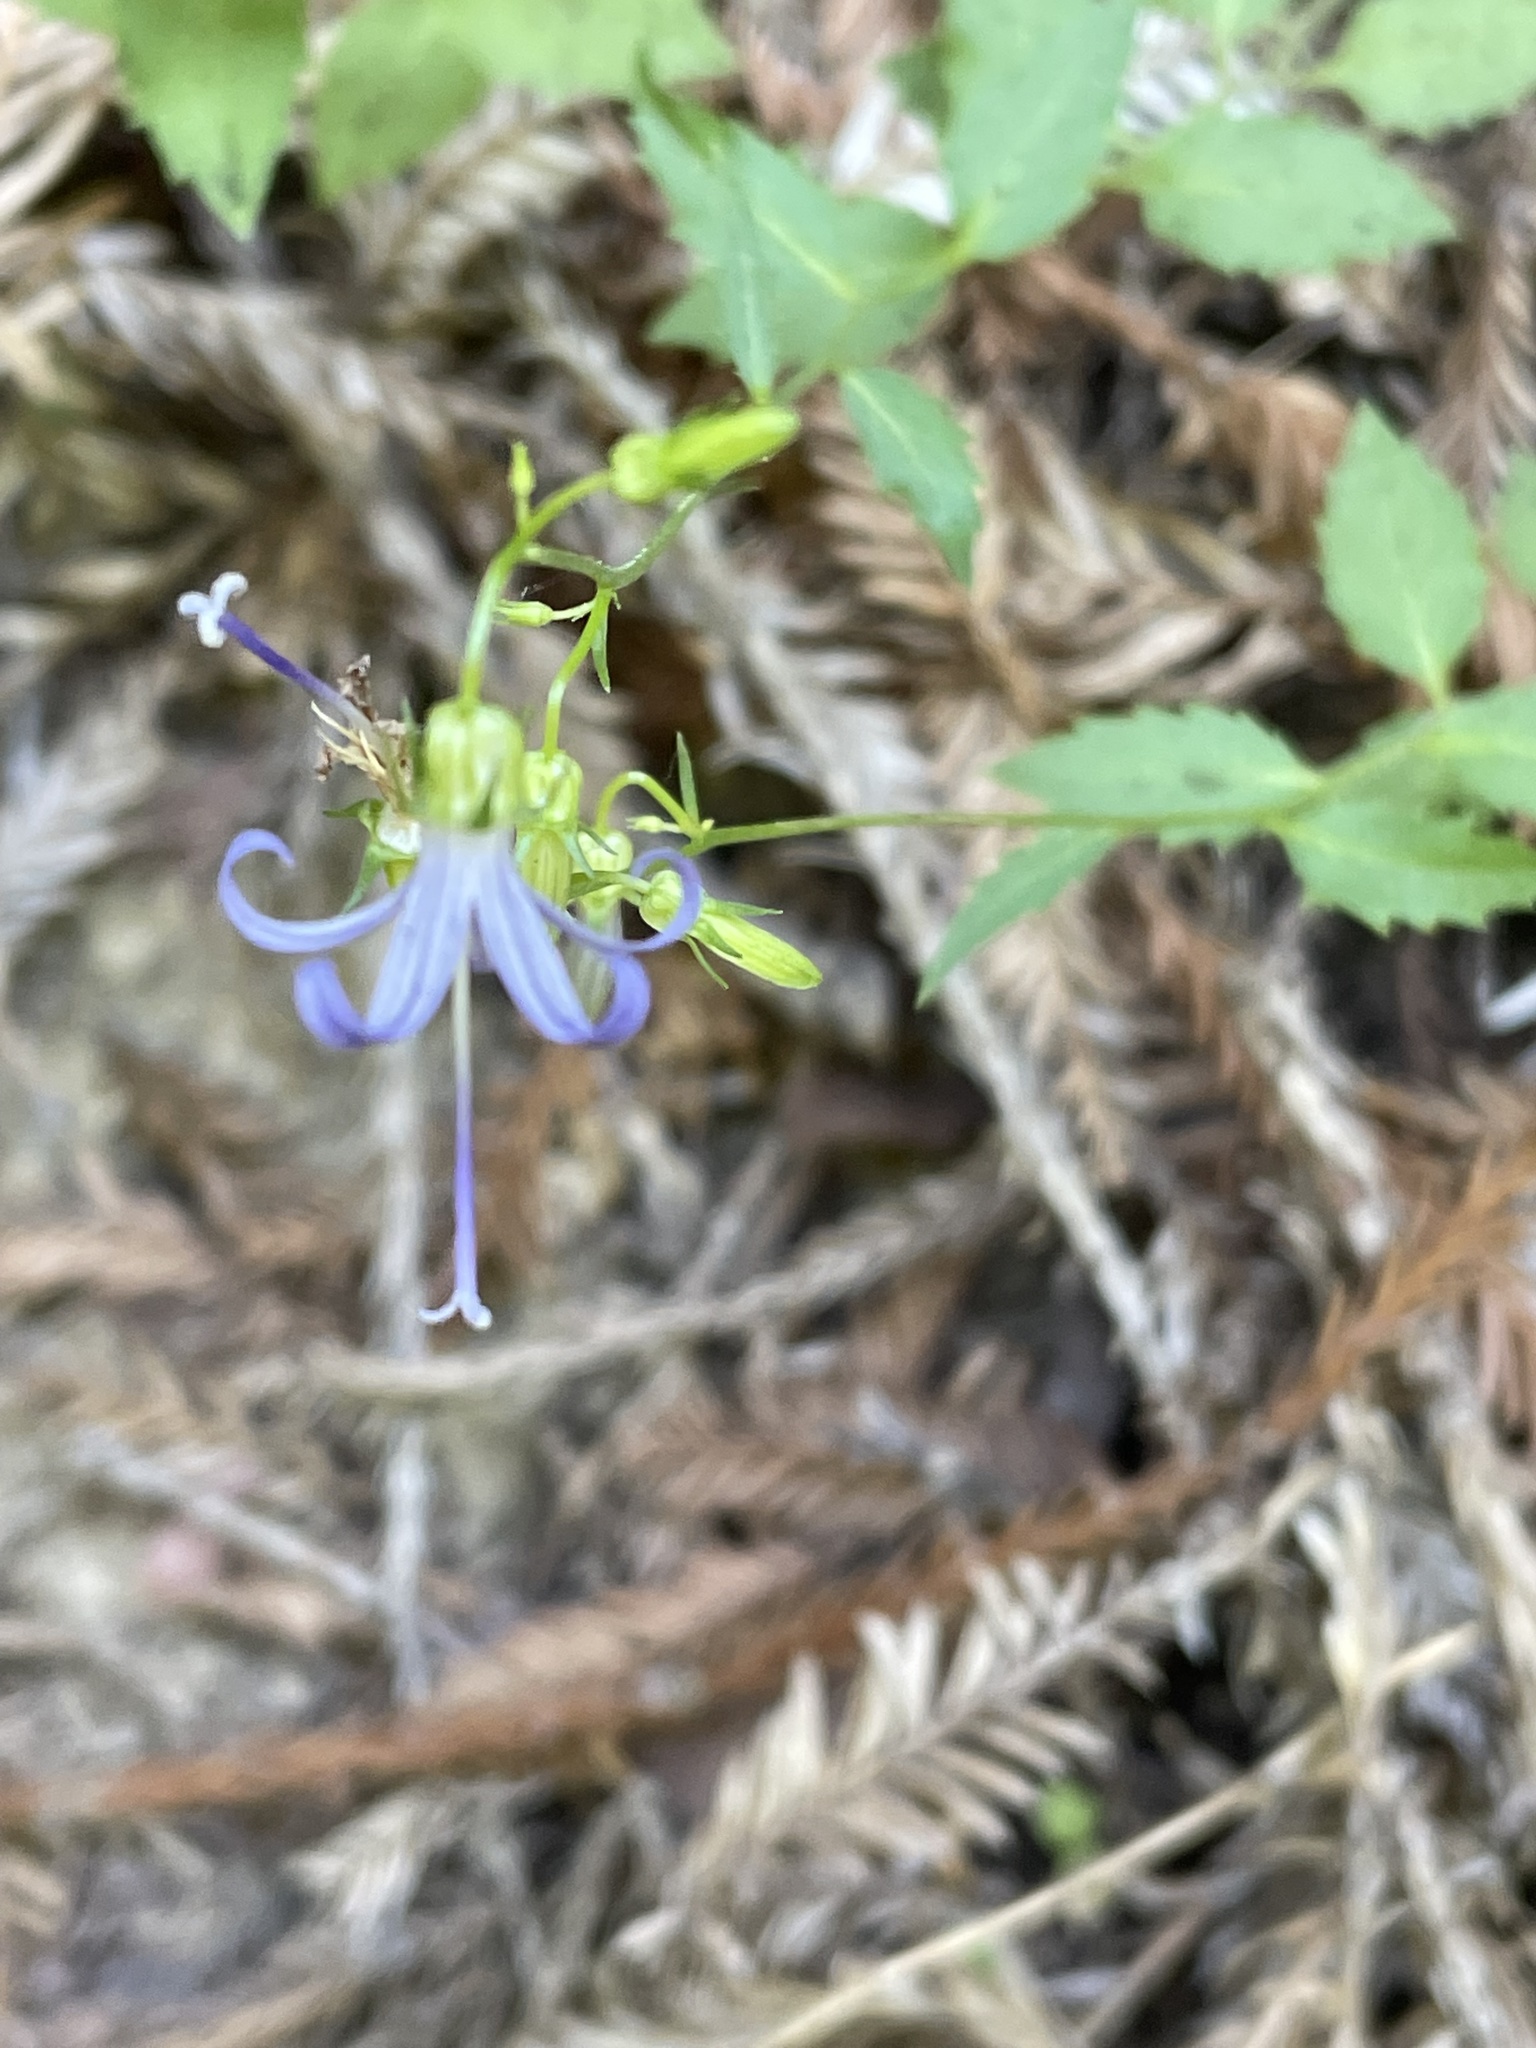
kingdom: Plantae
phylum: Tracheophyta
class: Magnoliopsida
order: Asterales
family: Campanulaceae
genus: Smithiastrum
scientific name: Smithiastrum prenanthoides
